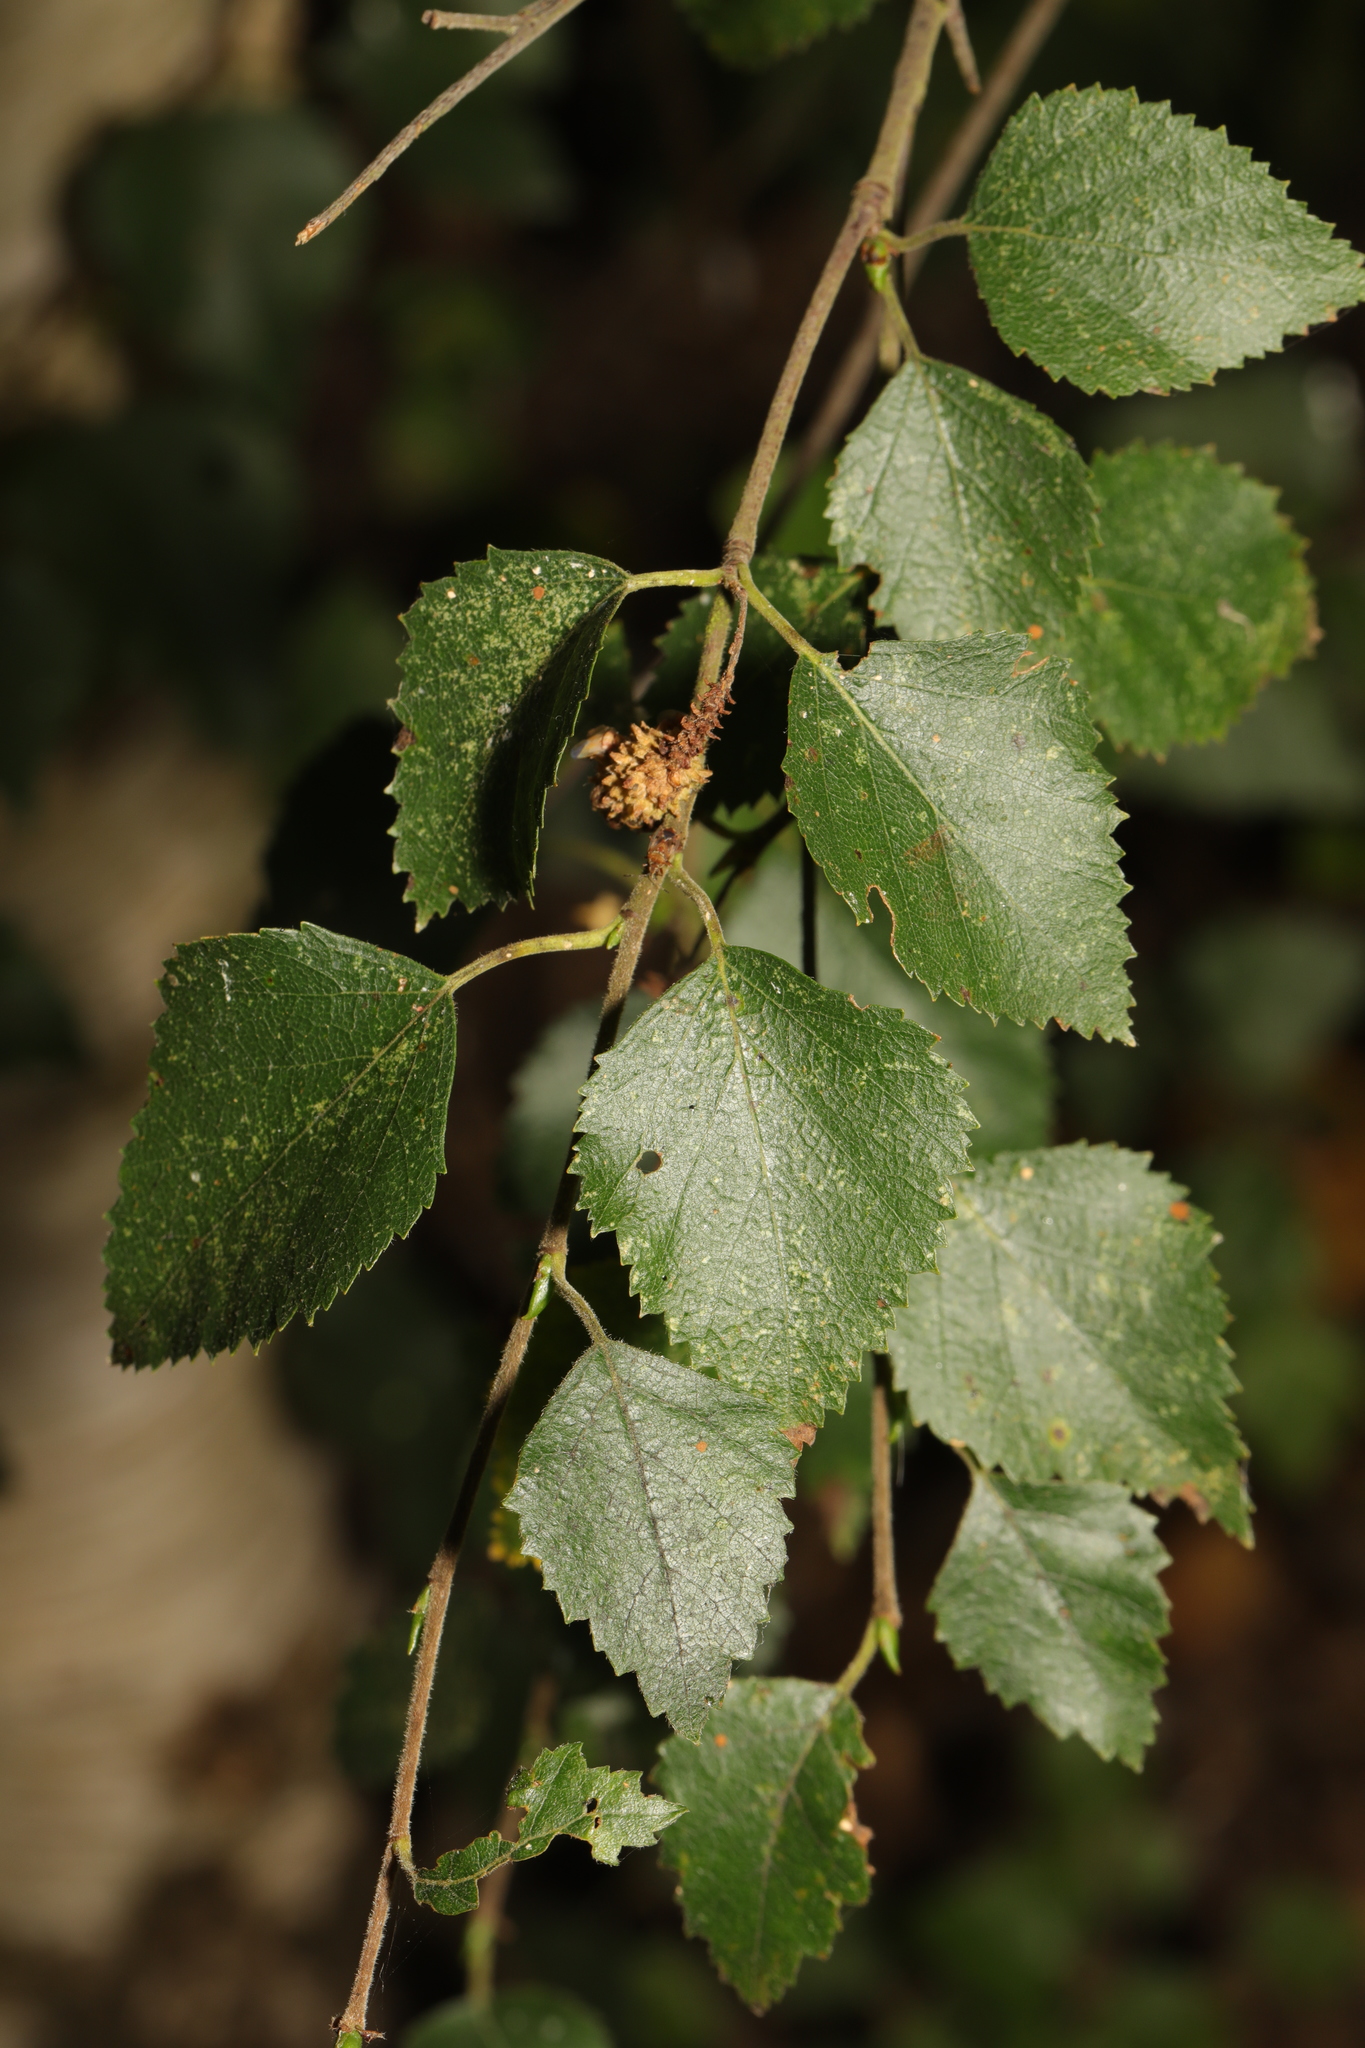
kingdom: Plantae
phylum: Tracheophyta
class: Magnoliopsida
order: Fagales
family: Betulaceae
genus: Betula
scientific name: Betula pubescens
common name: Downy birch
